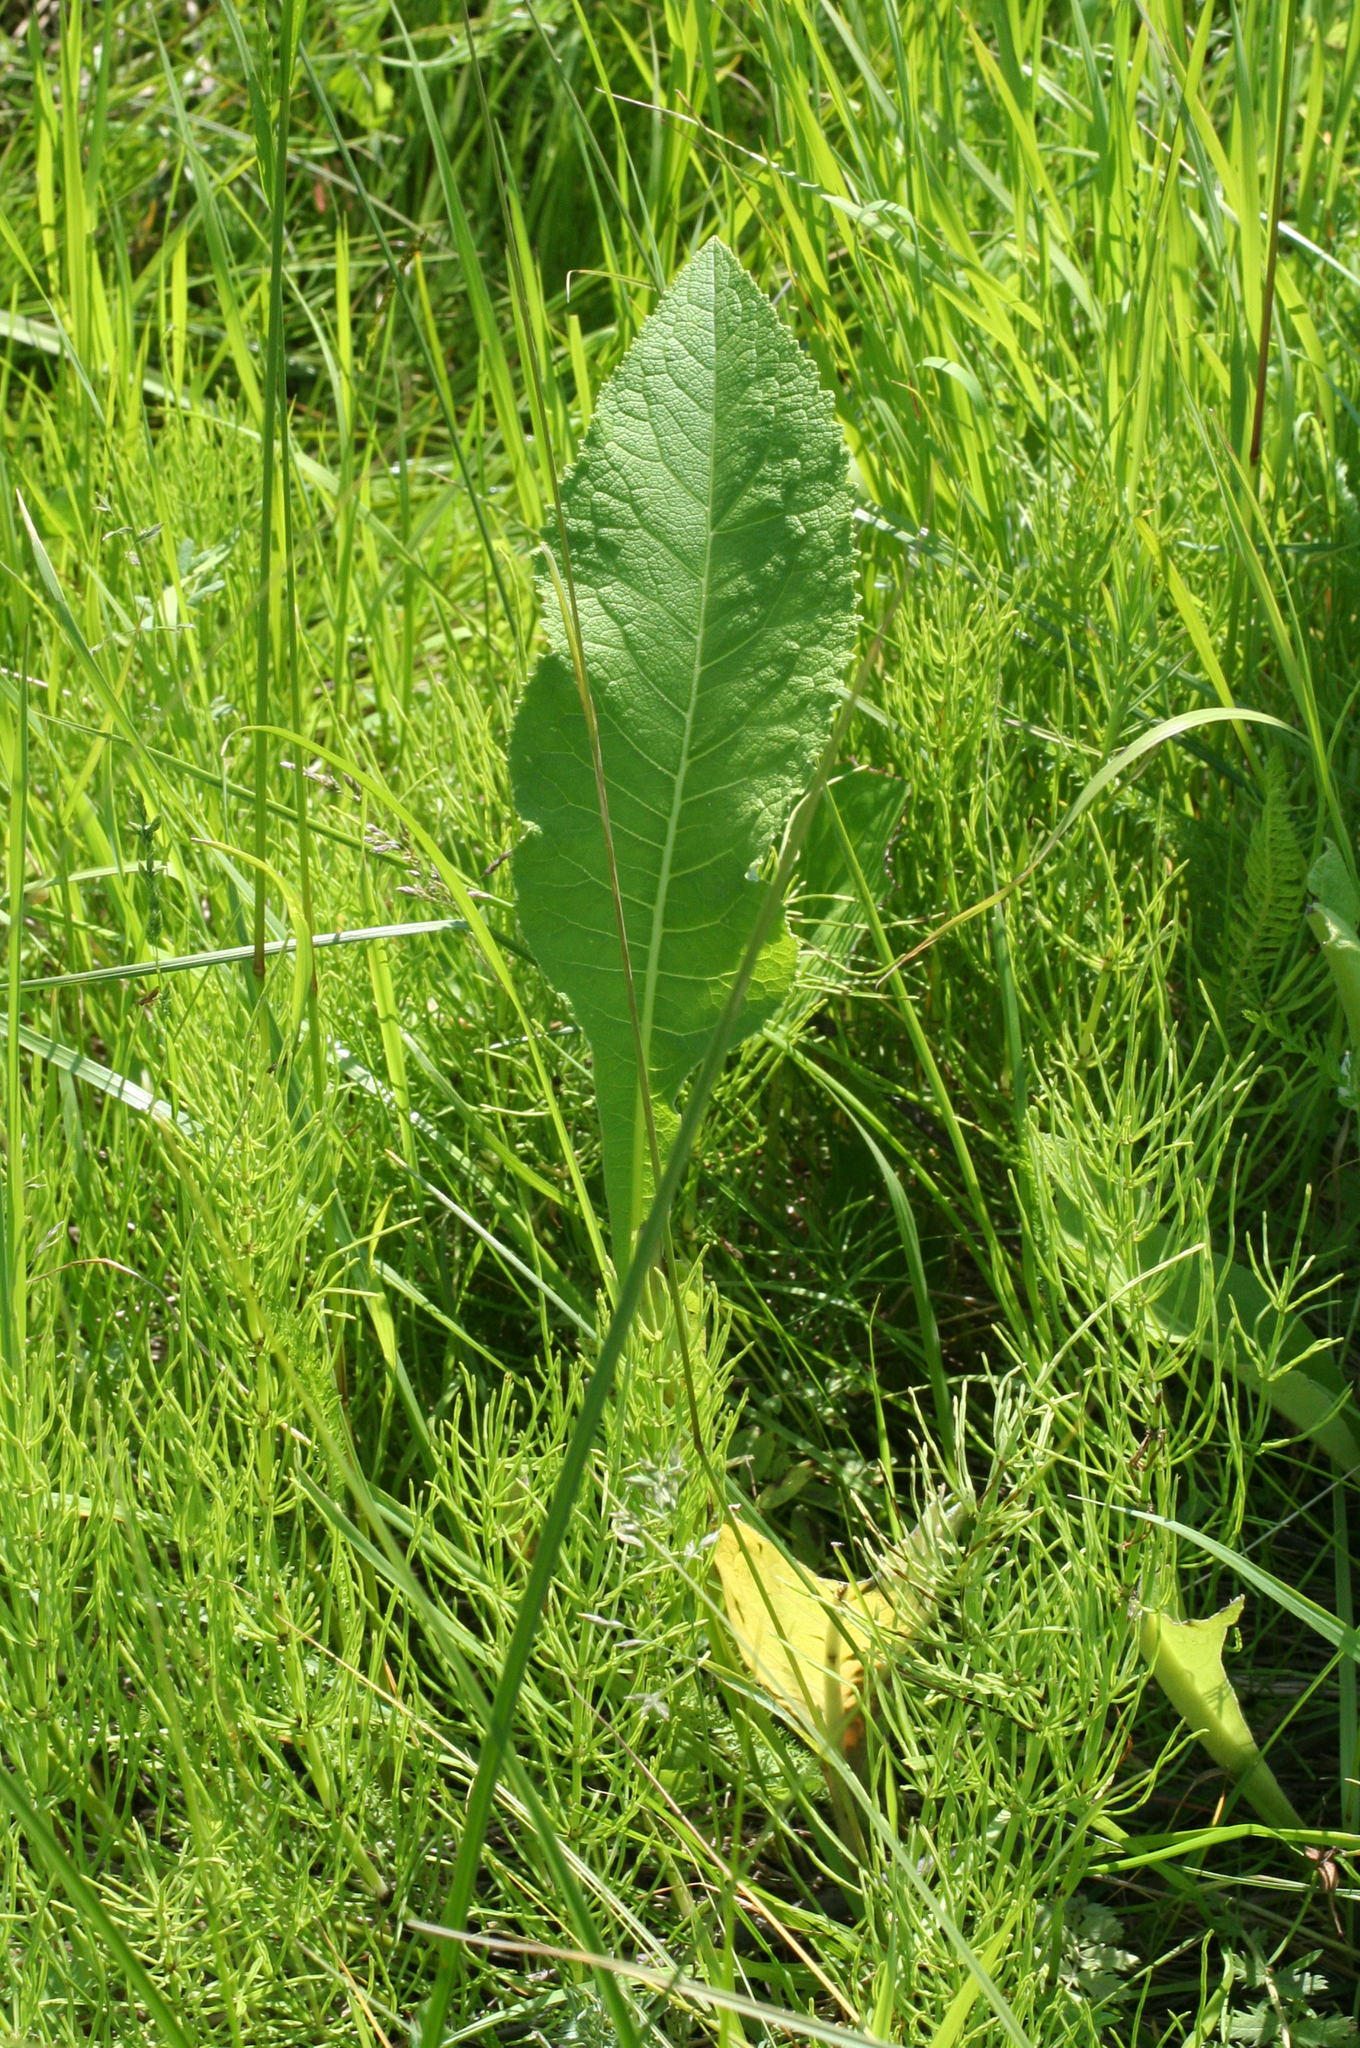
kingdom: Plantae
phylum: Tracheophyta
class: Magnoliopsida
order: Asterales
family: Asteraceae
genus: Inula
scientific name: Inula helenium
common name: Elecampane
